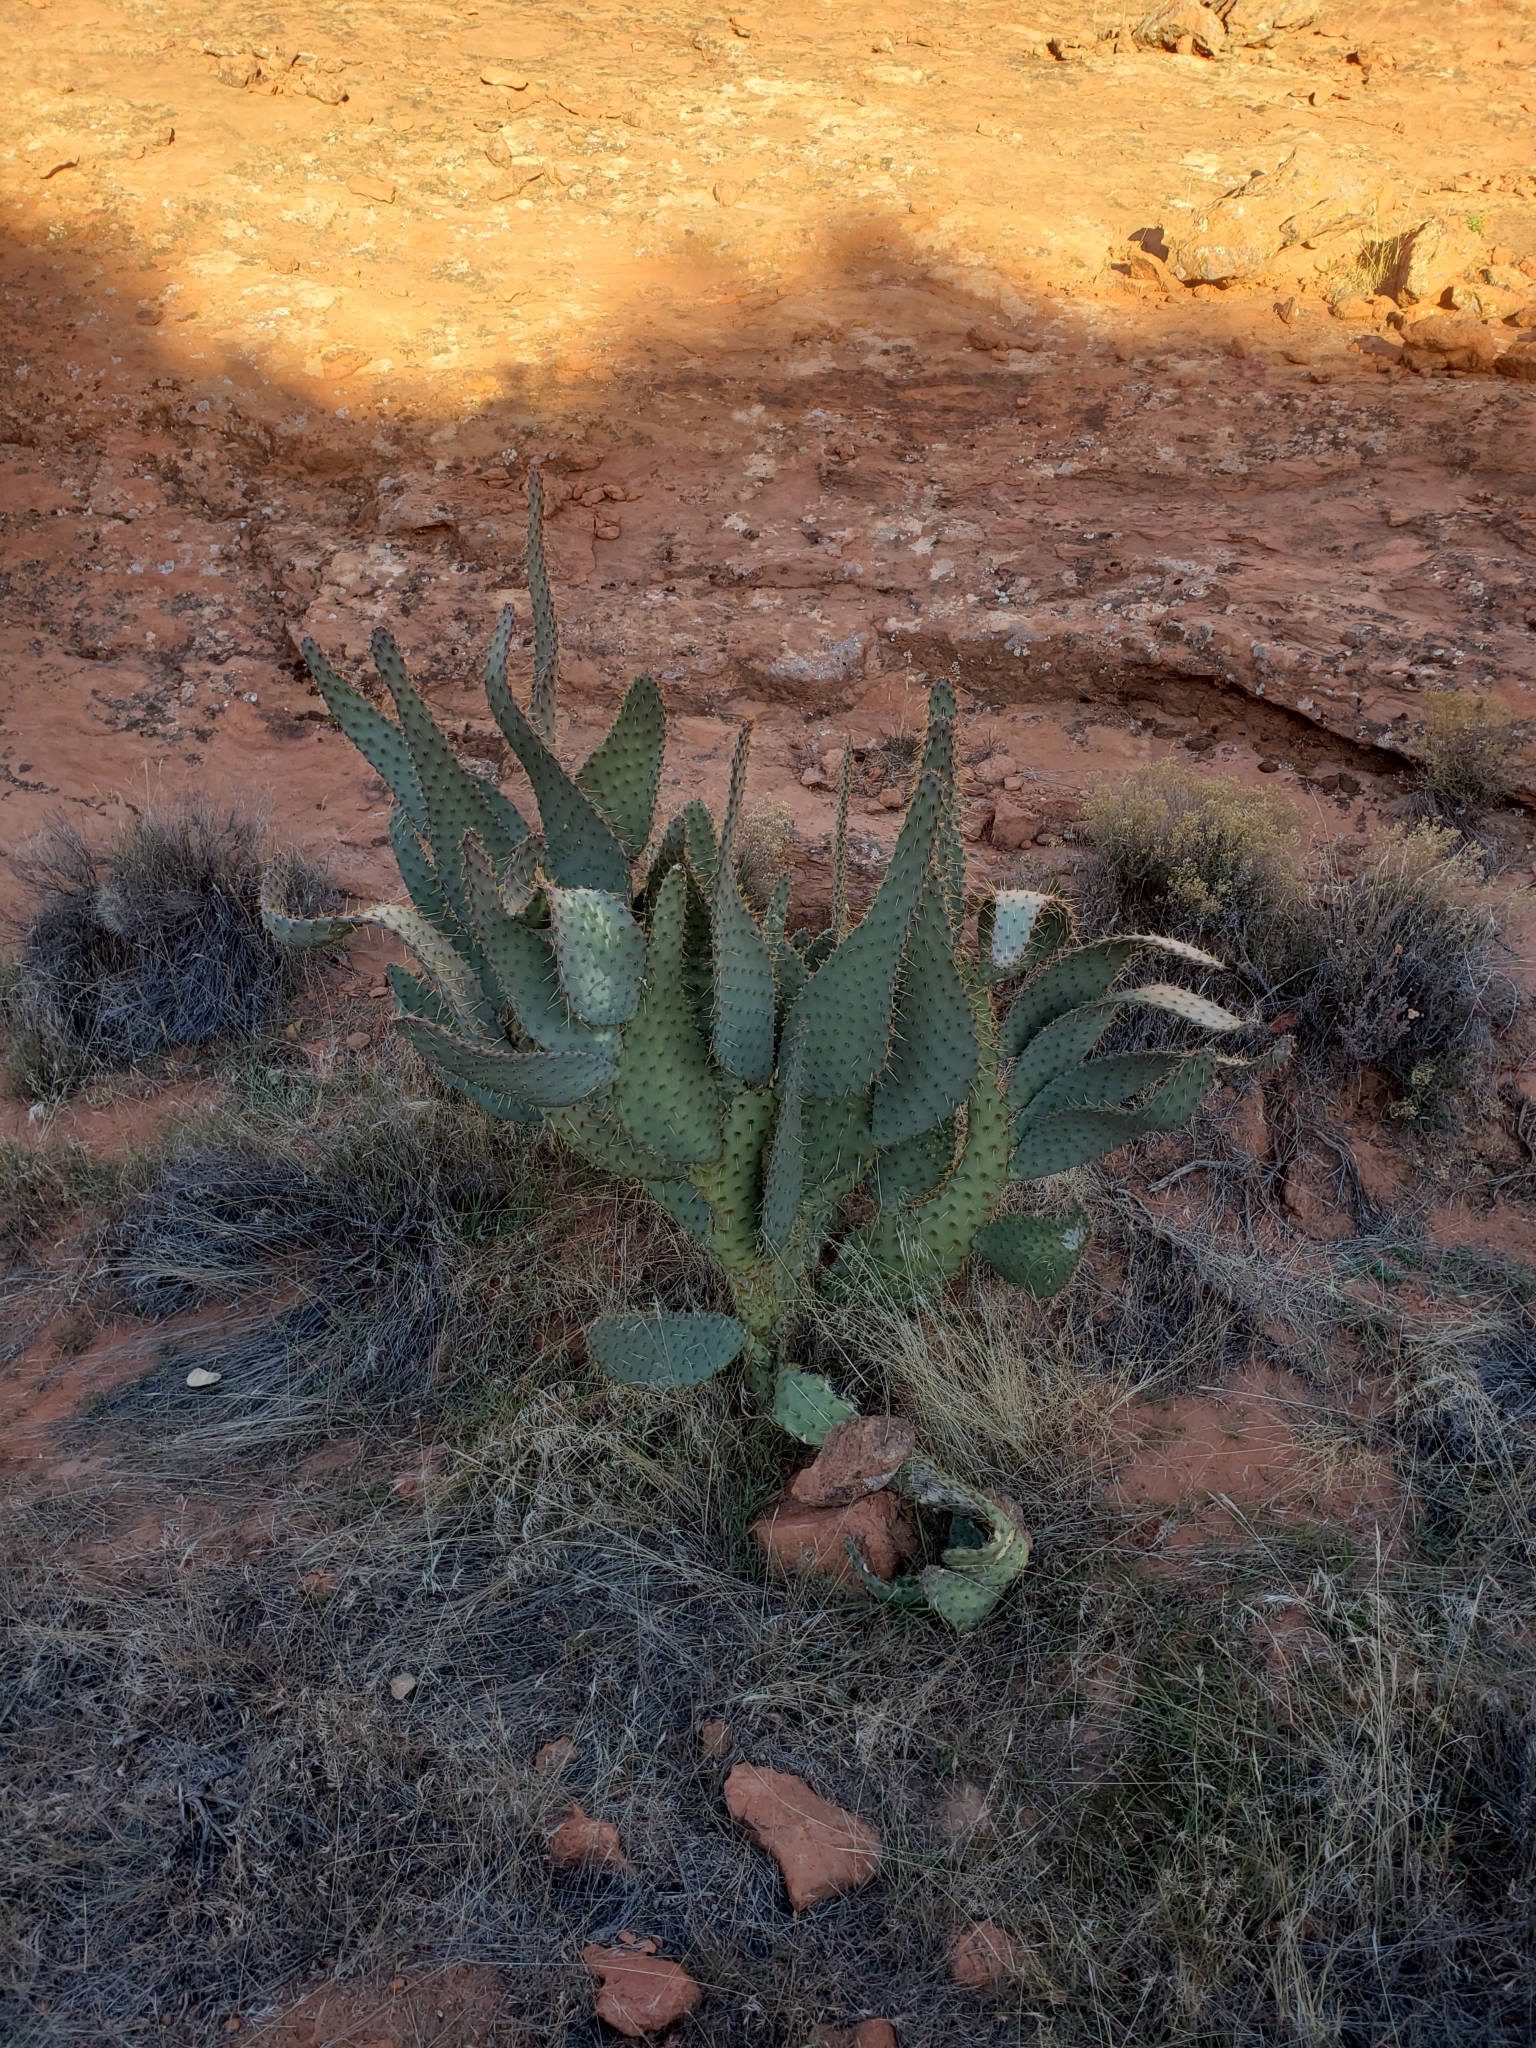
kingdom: Plantae
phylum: Tracheophyta
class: Magnoliopsida
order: Caryophyllales
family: Cactaceae
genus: Opuntia
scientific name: Opuntia engelmannii
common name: Cactus-apple
